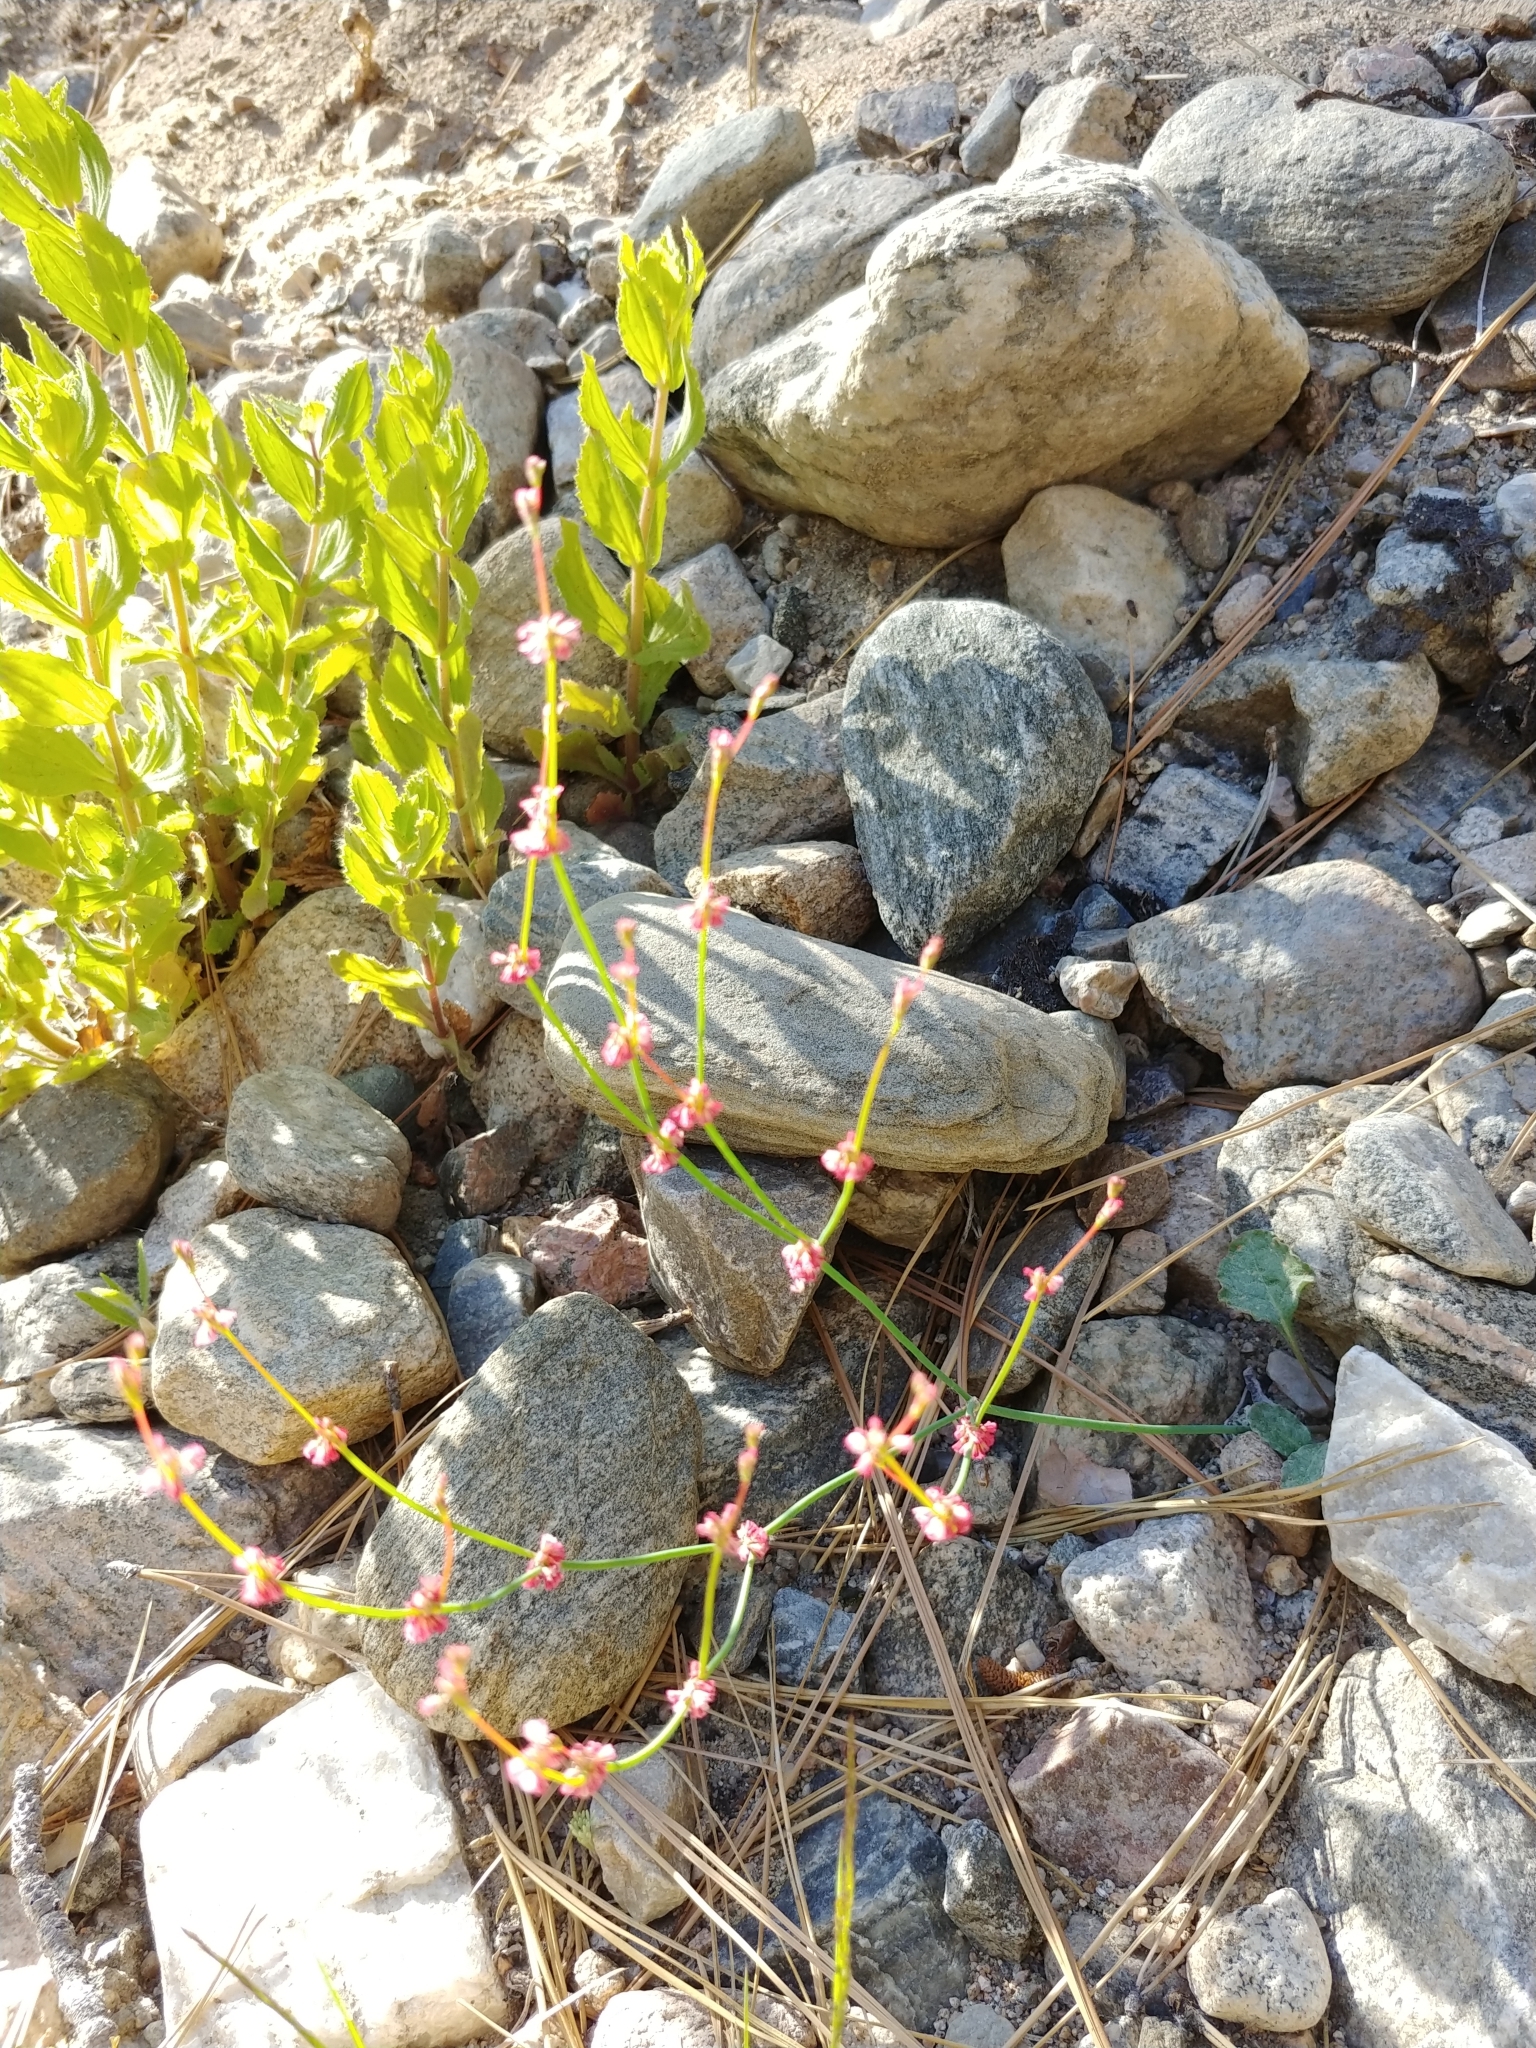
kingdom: Plantae
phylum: Tracheophyta
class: Magnoliopsida
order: Caryophyllales
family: Polygonaceae
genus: Eriogonum
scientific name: Eriogonum gracile
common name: Slender woolly buckwheat
